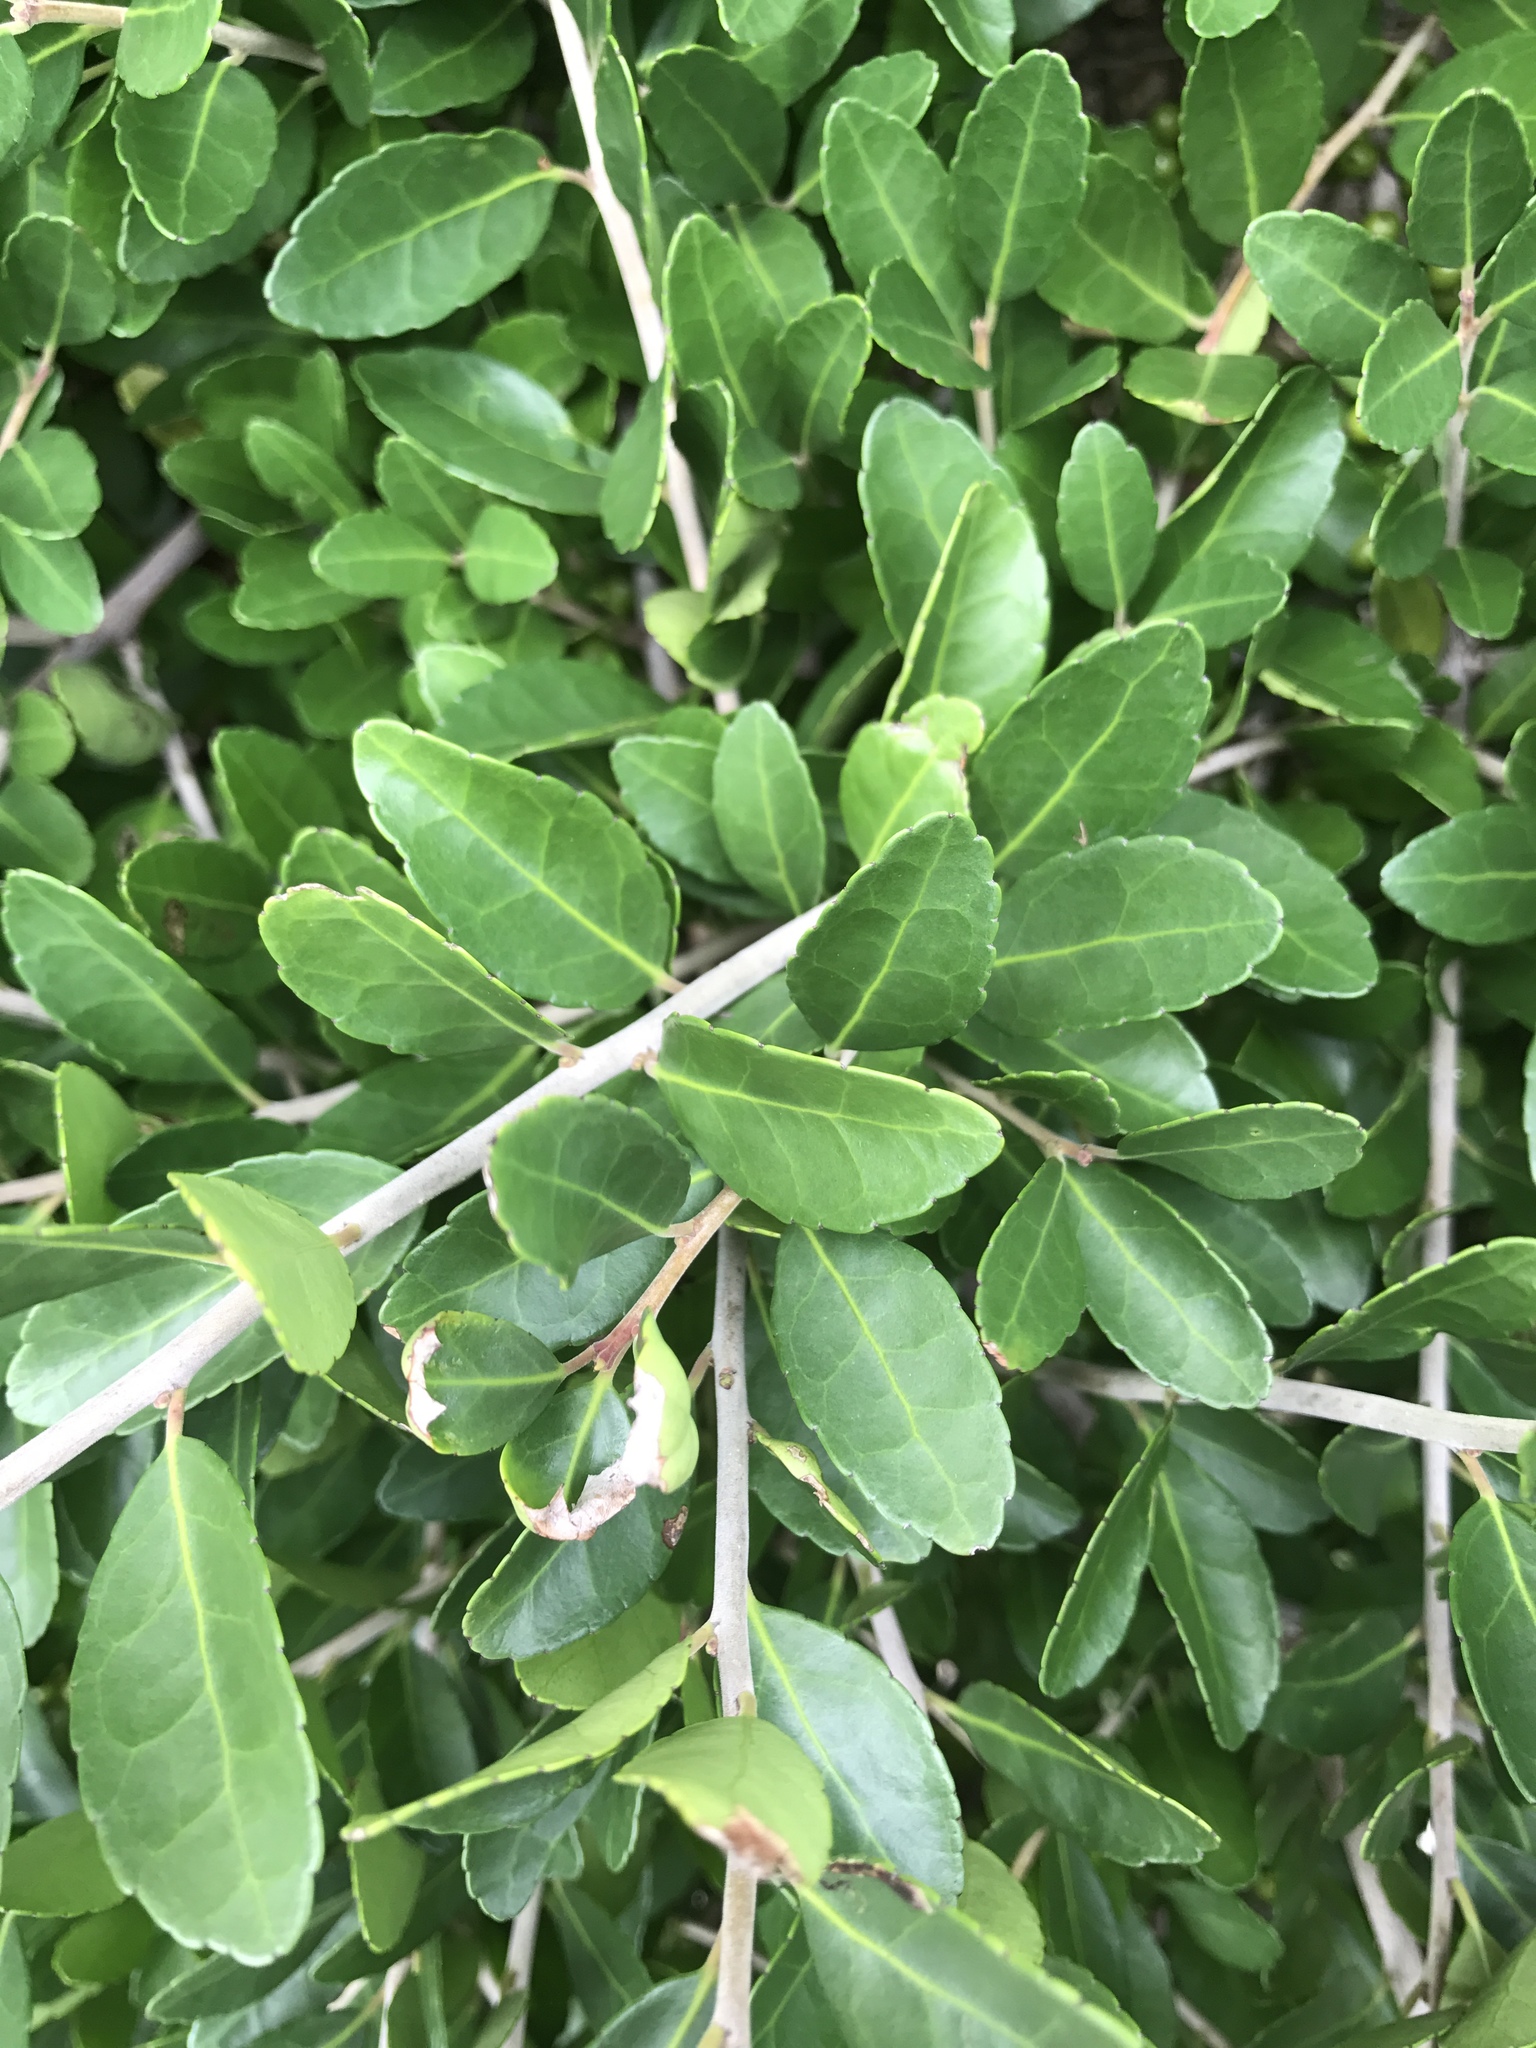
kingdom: Plantae
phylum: Tracheophyta
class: Magnoliopsida
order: Aquifoliales
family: Aquifoliaceae
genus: Ilex
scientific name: Ilex vomitoria
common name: Yaupon holly
